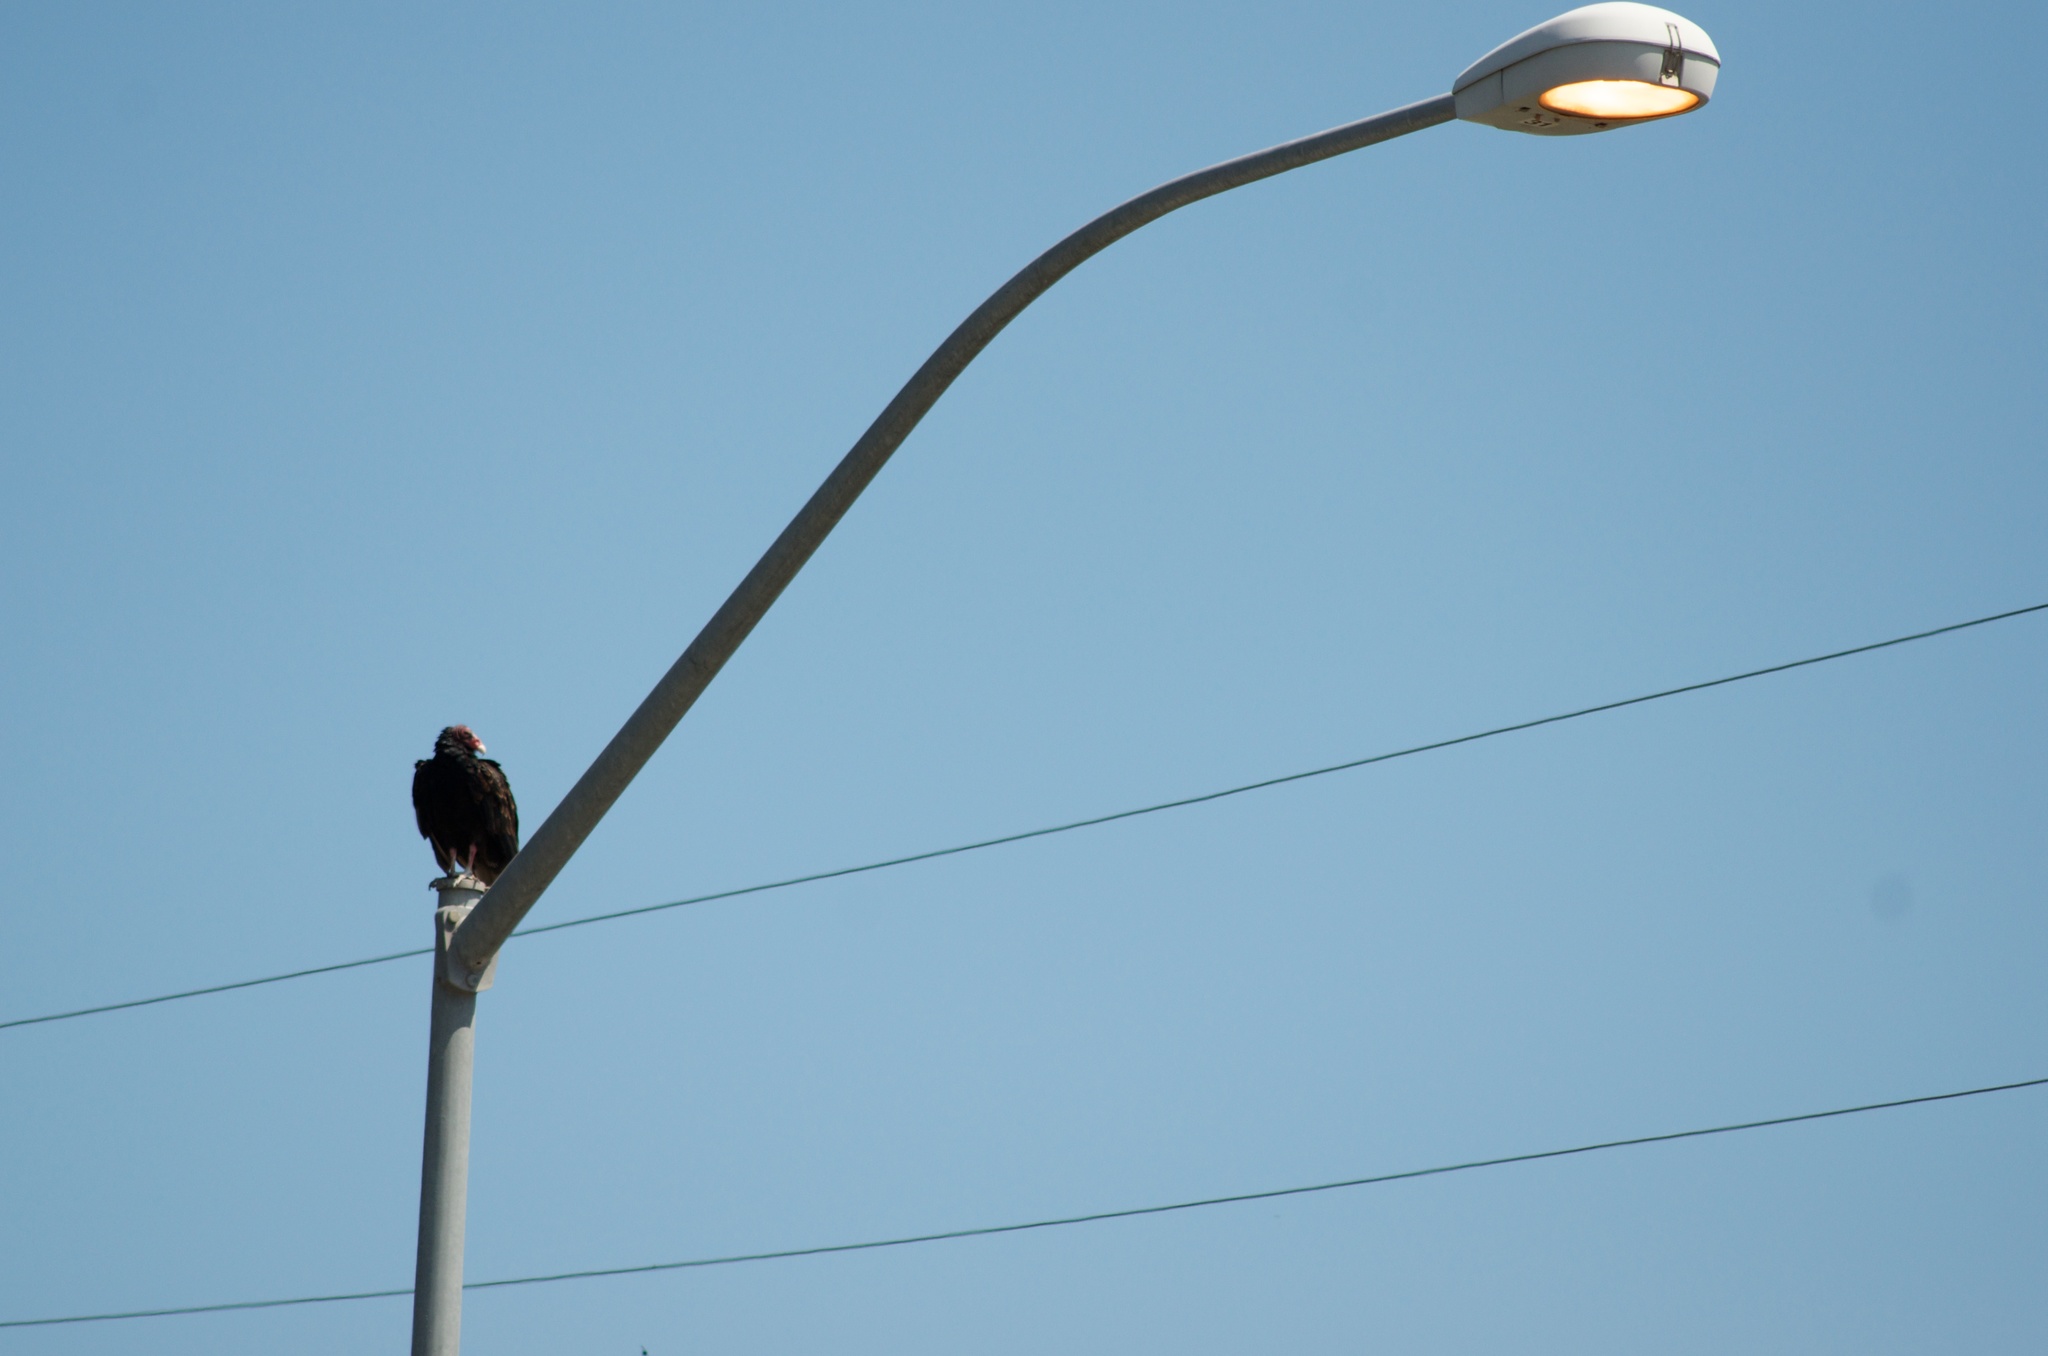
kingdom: Animalia
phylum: Chordata
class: Aves
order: Accipitriformes
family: Cathartidae
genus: Cathartes
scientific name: Cathartes aura
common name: Turkey vulture
